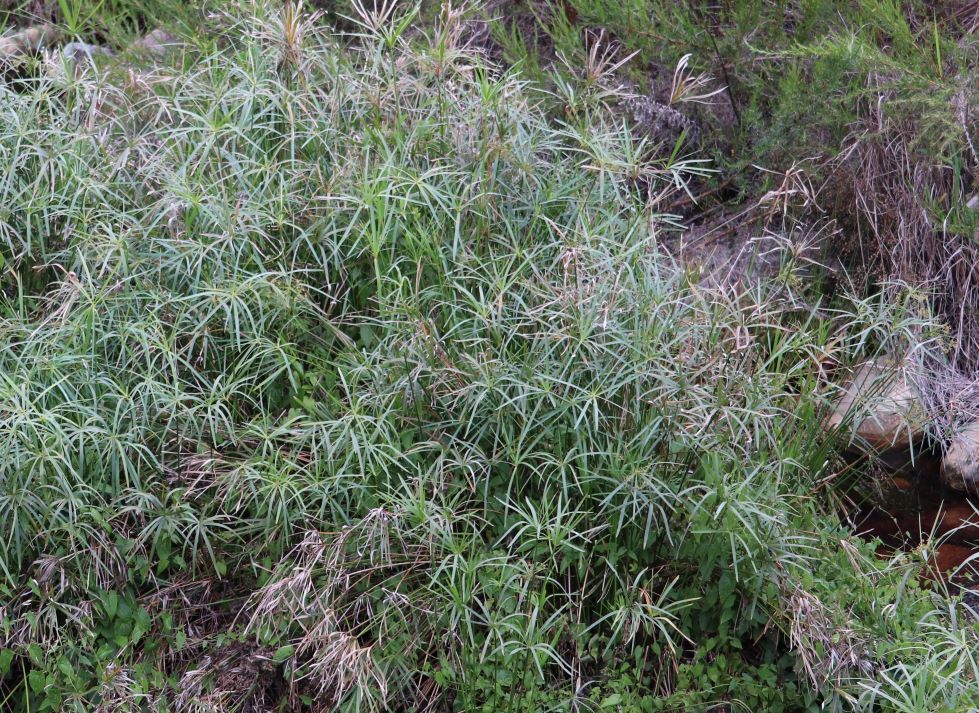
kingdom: Plantae
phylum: Tracheophyta
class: Liliopsida
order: Poales
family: Cyperaceae
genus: Cyperus
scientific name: Cyperus textilis
